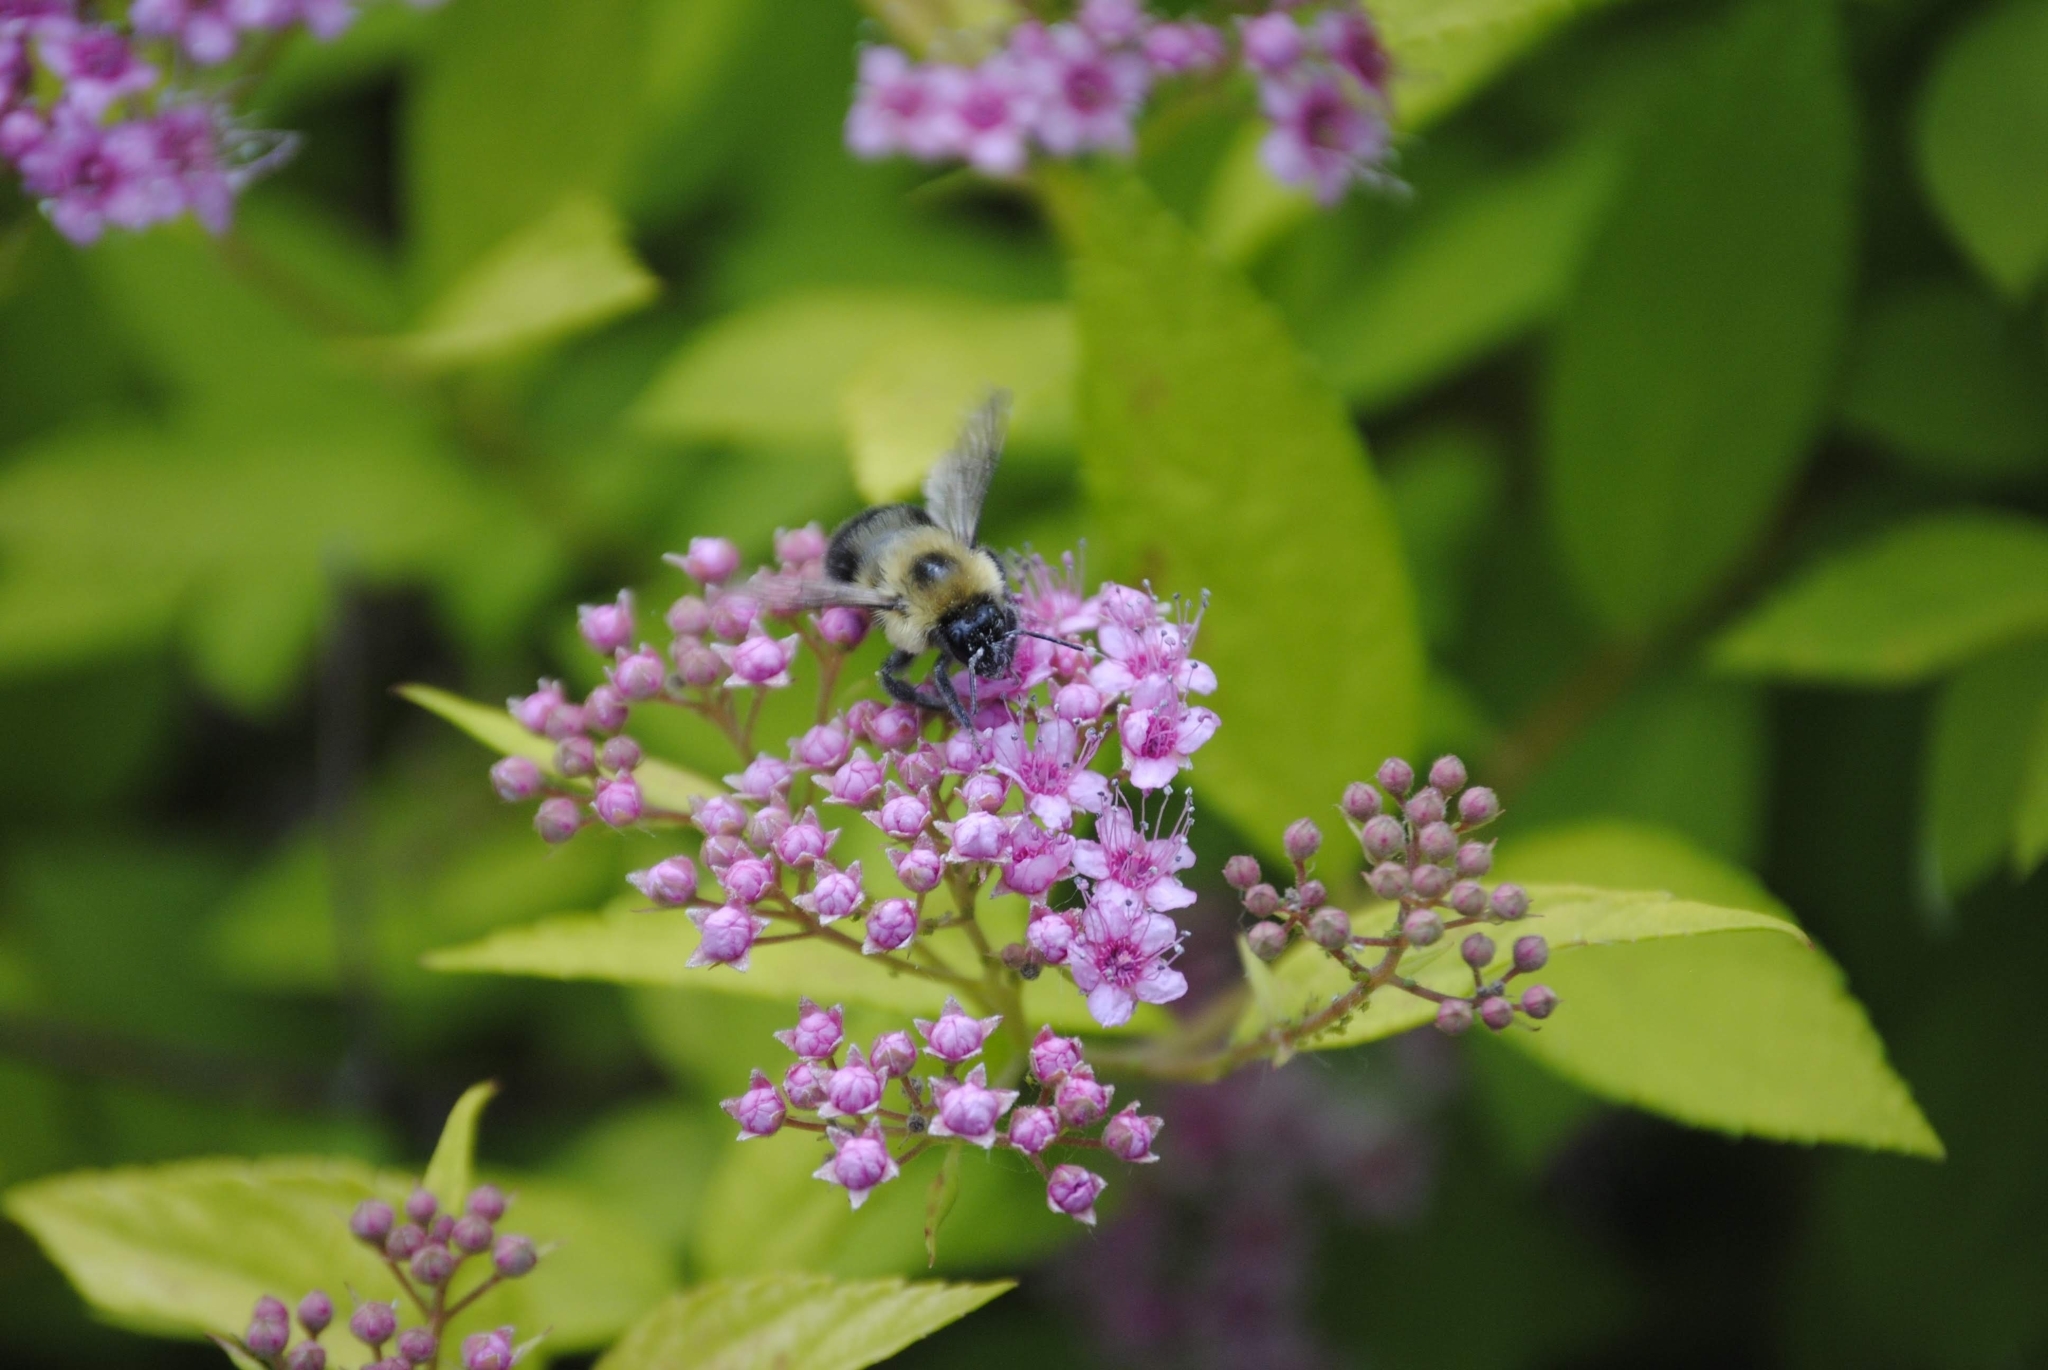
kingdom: Animalia
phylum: Arthropoda
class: Insecta
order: Hymenoptera
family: Apidae
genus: Bombus
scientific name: Bombus bimaculatus
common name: Two-spotted bumble bee
